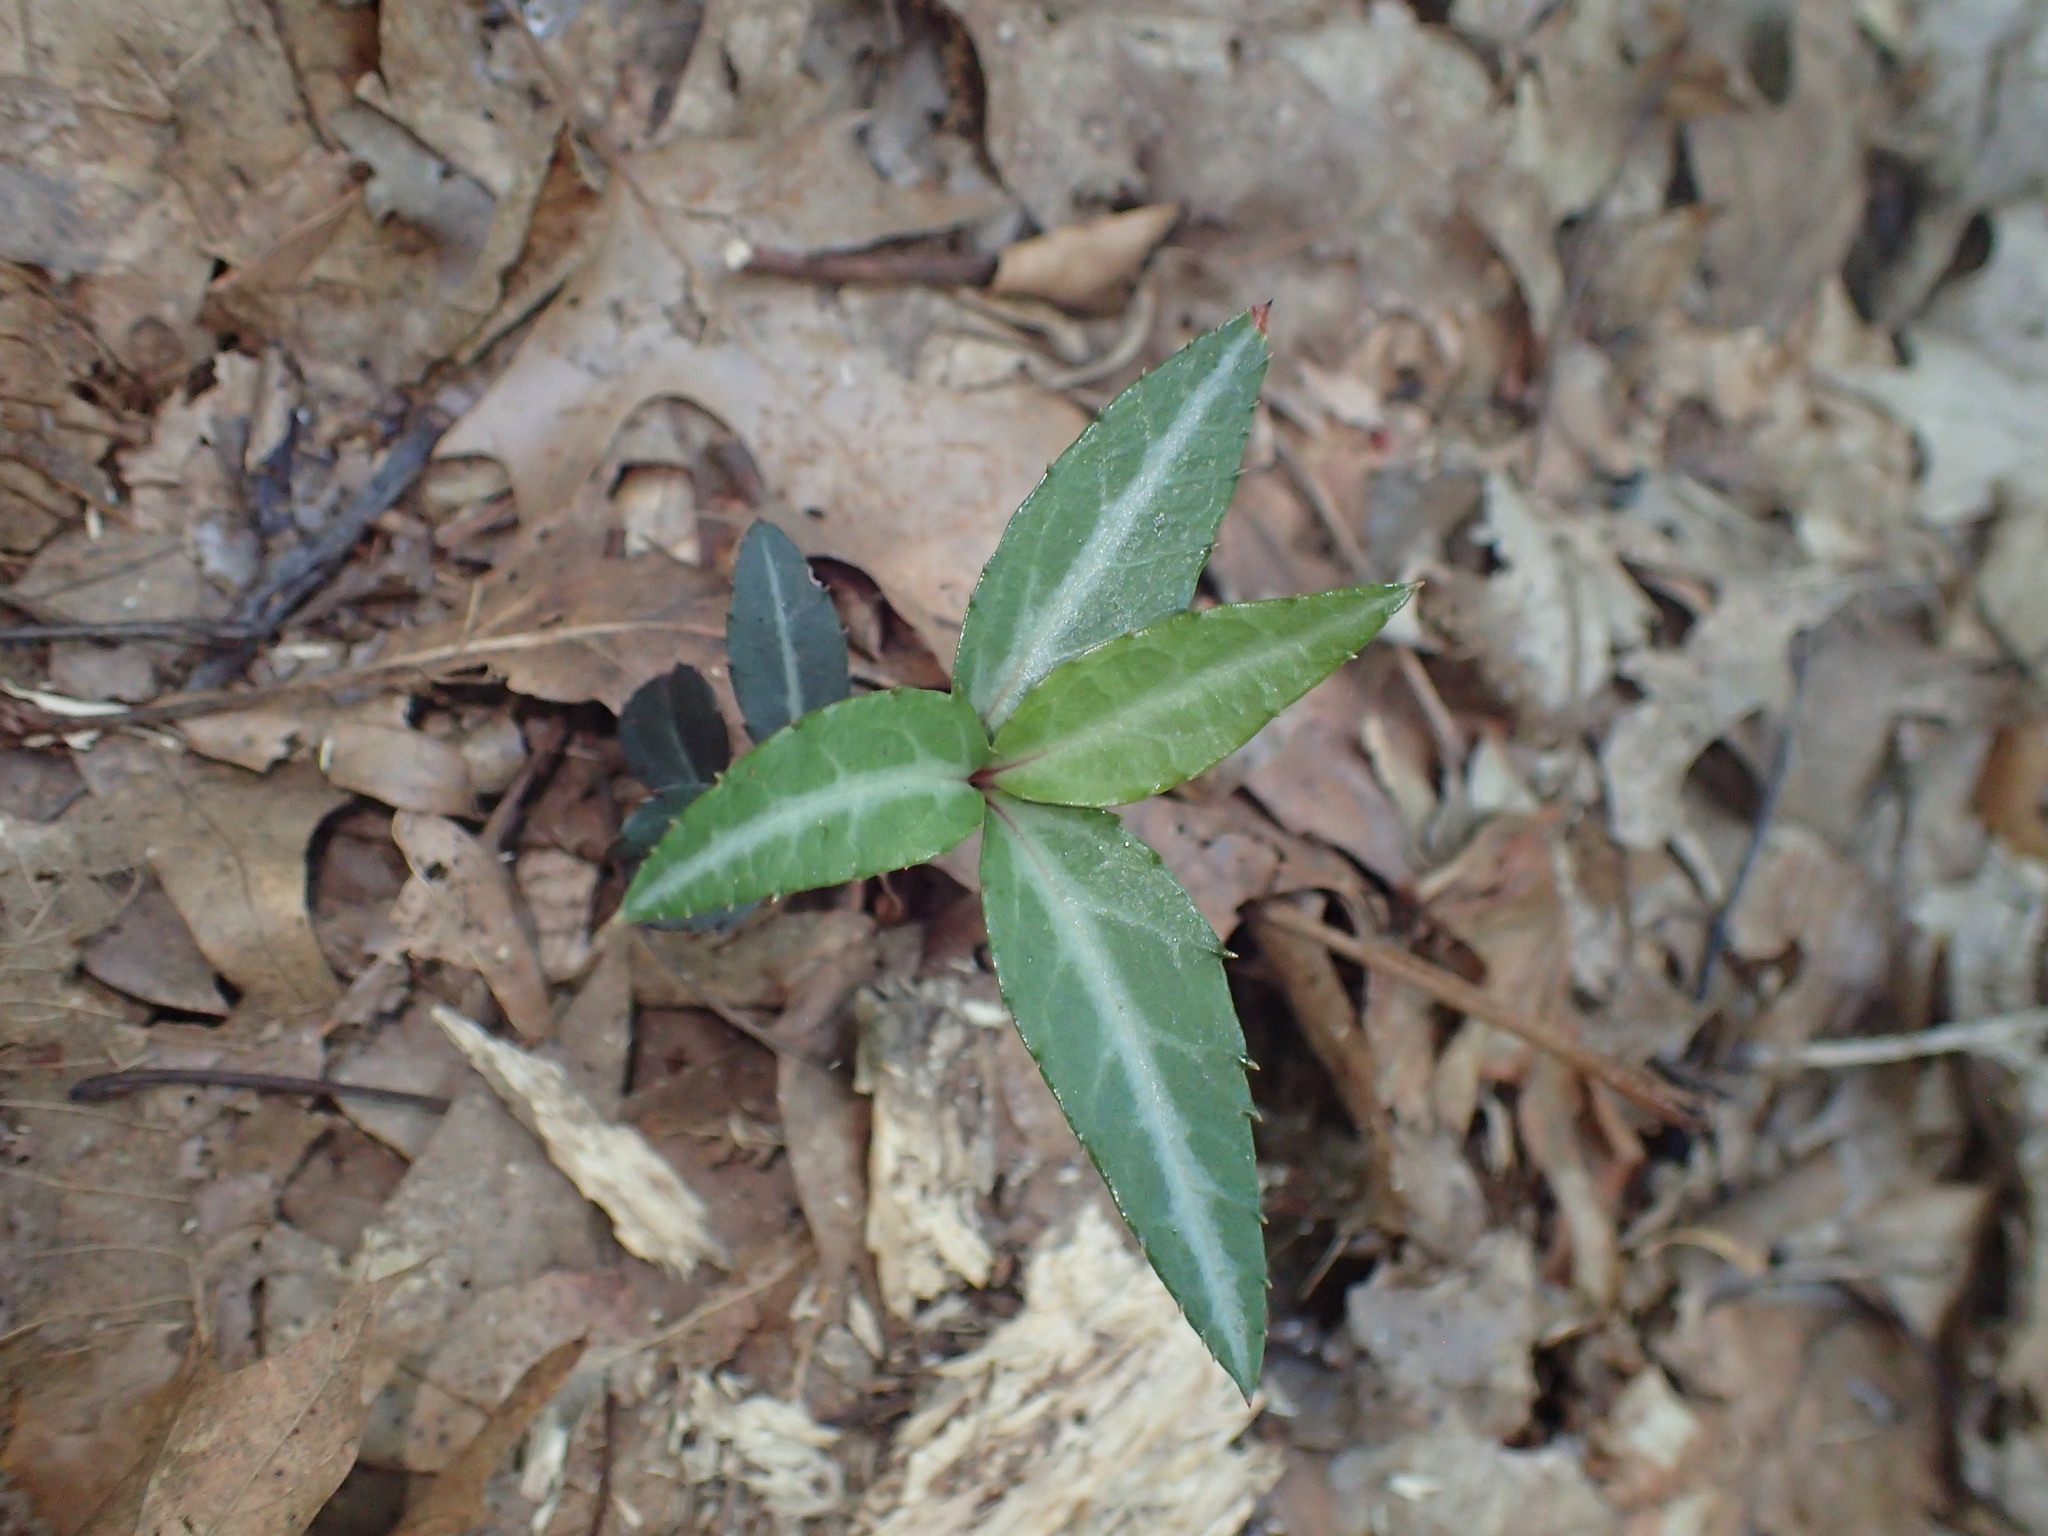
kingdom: Plantae
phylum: Tracheophyta
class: Magnoliopsida
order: Ericales
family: Ericaceae
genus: Chimaphila
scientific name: Chimaphila maculata
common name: Spotted pipsissewa
